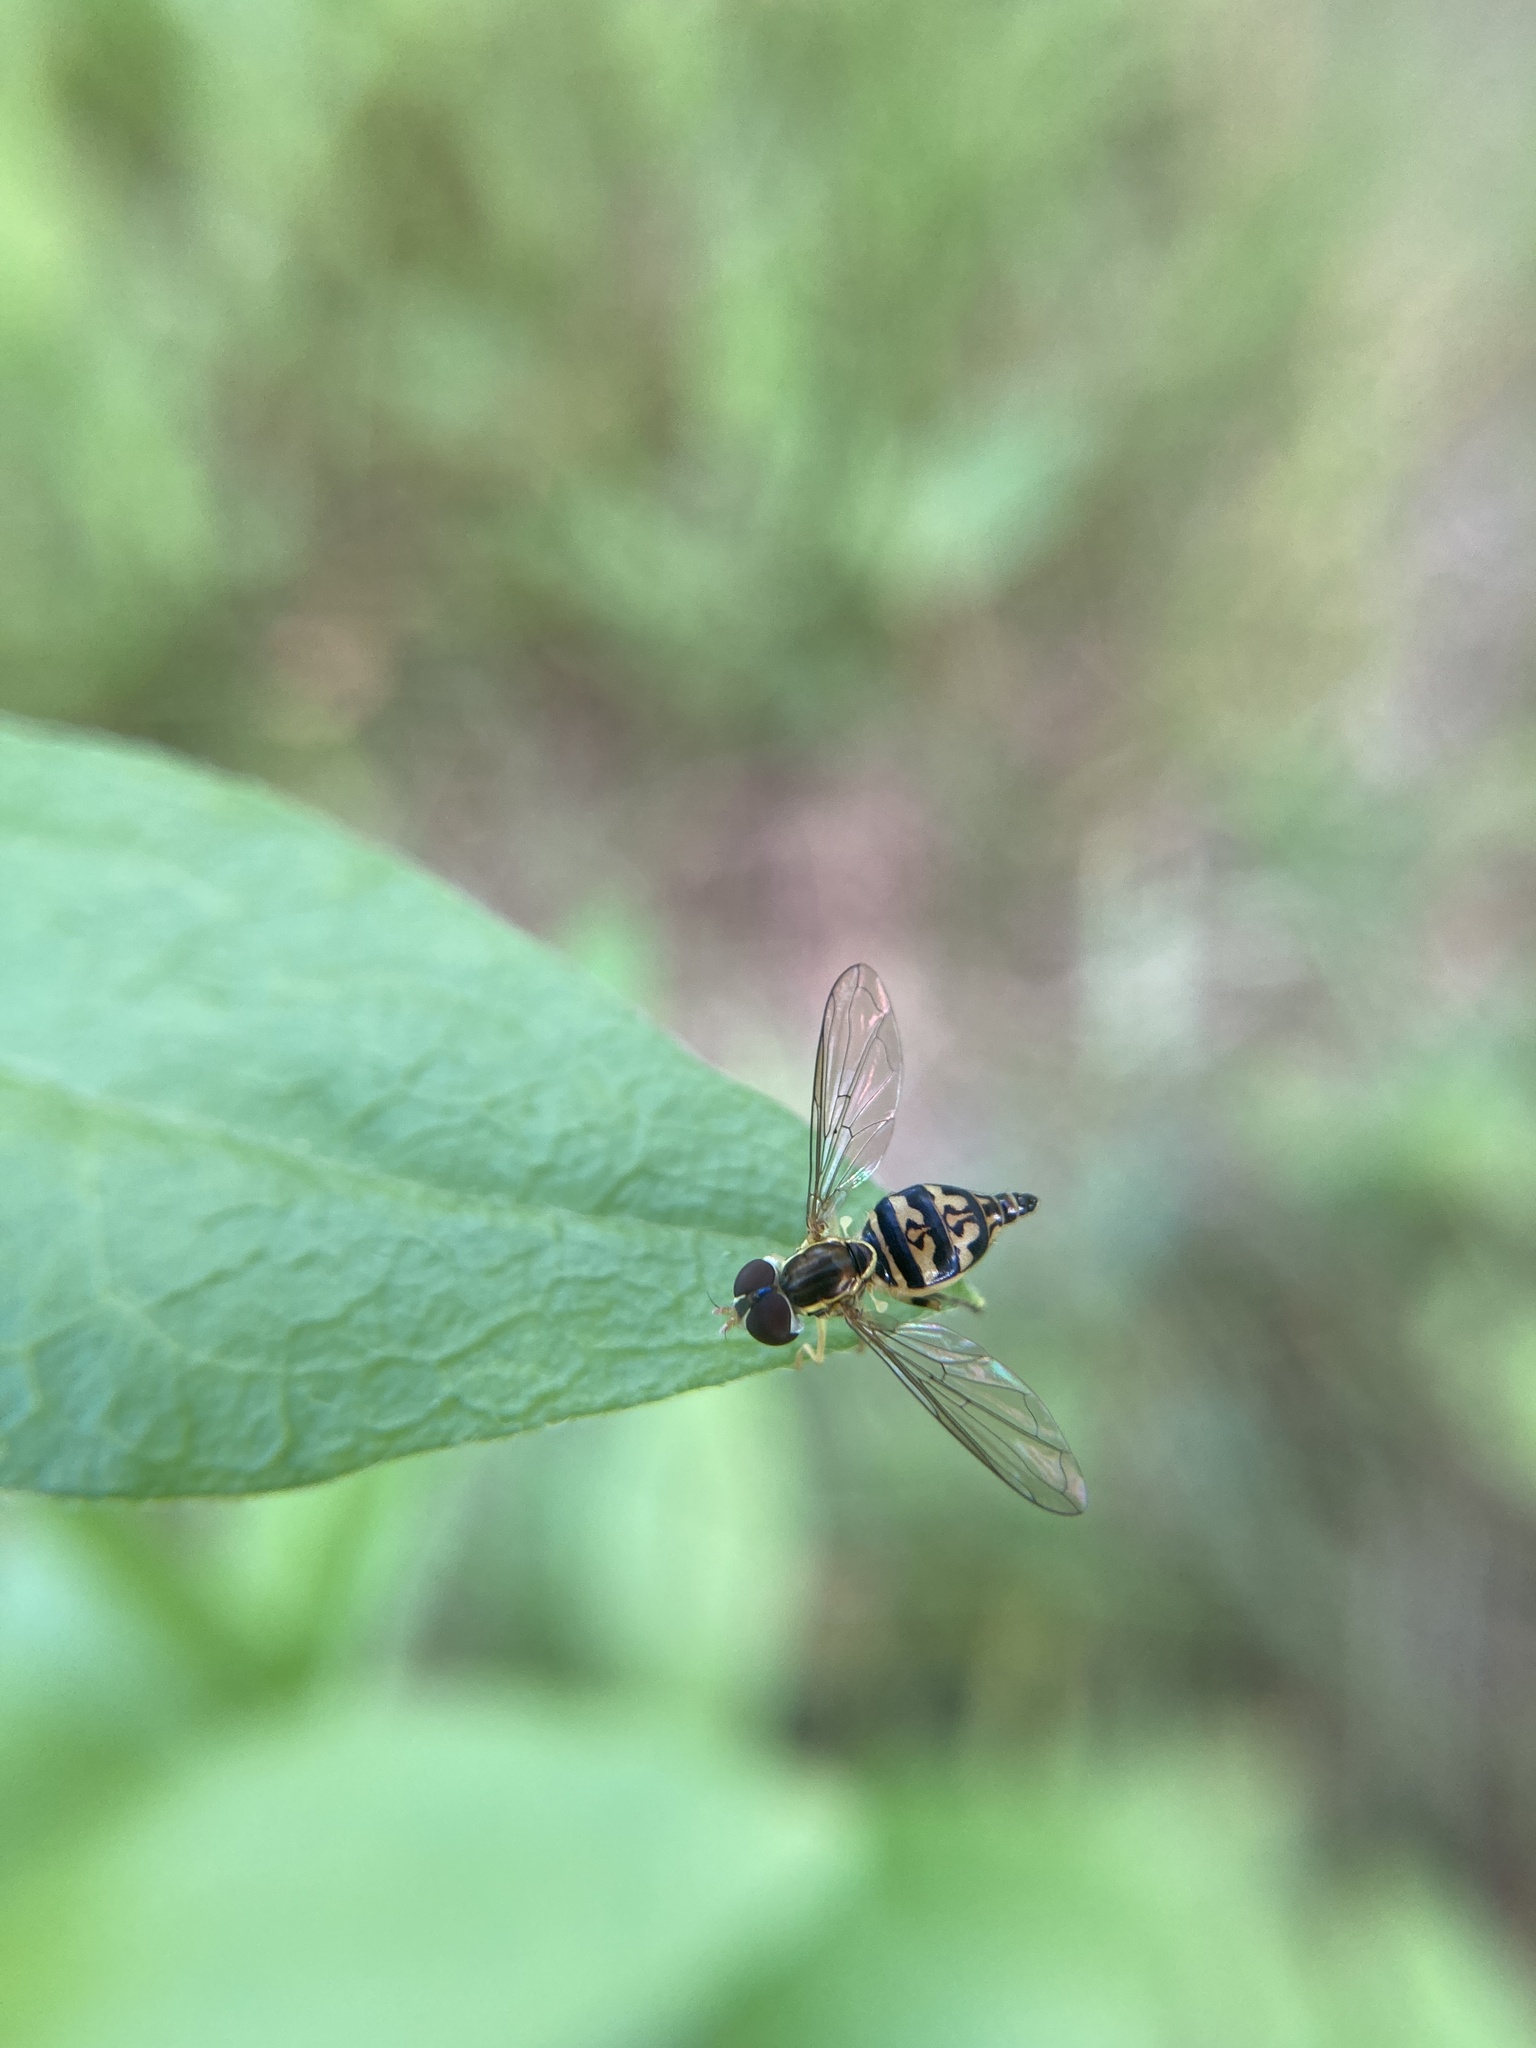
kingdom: Animalia
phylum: Arthropoda
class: Insecta
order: Diptera
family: Syrphidae
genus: Toxomerus
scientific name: Toxomerus geminatus
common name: Eastern calligrapher
